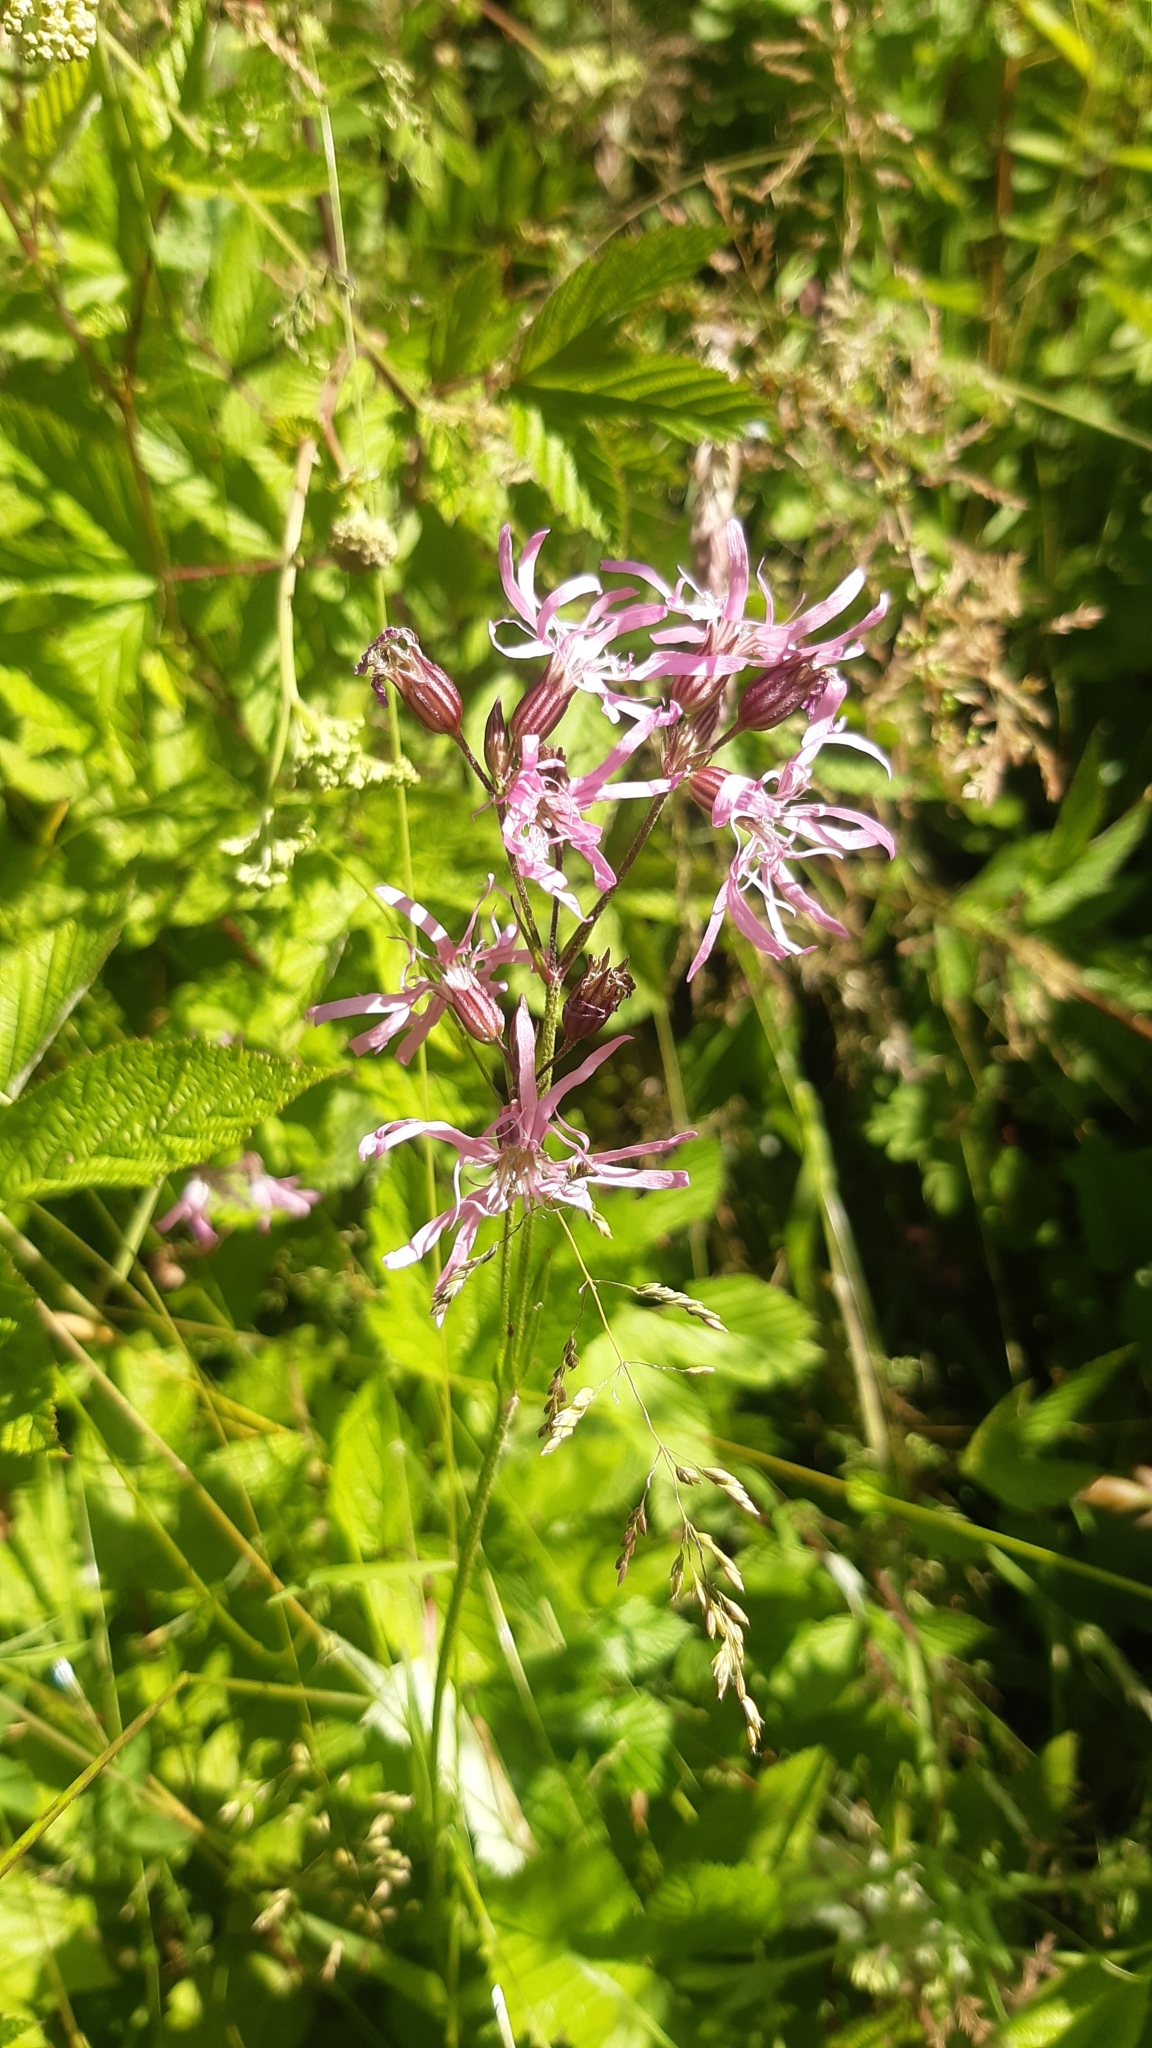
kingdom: Plantae
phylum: Tracheophyta
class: Magnoliopsida
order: Caryophyllales
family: Caryophyllaceae
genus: Silene
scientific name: Silene flos-cuculi
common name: Ragged-robin
